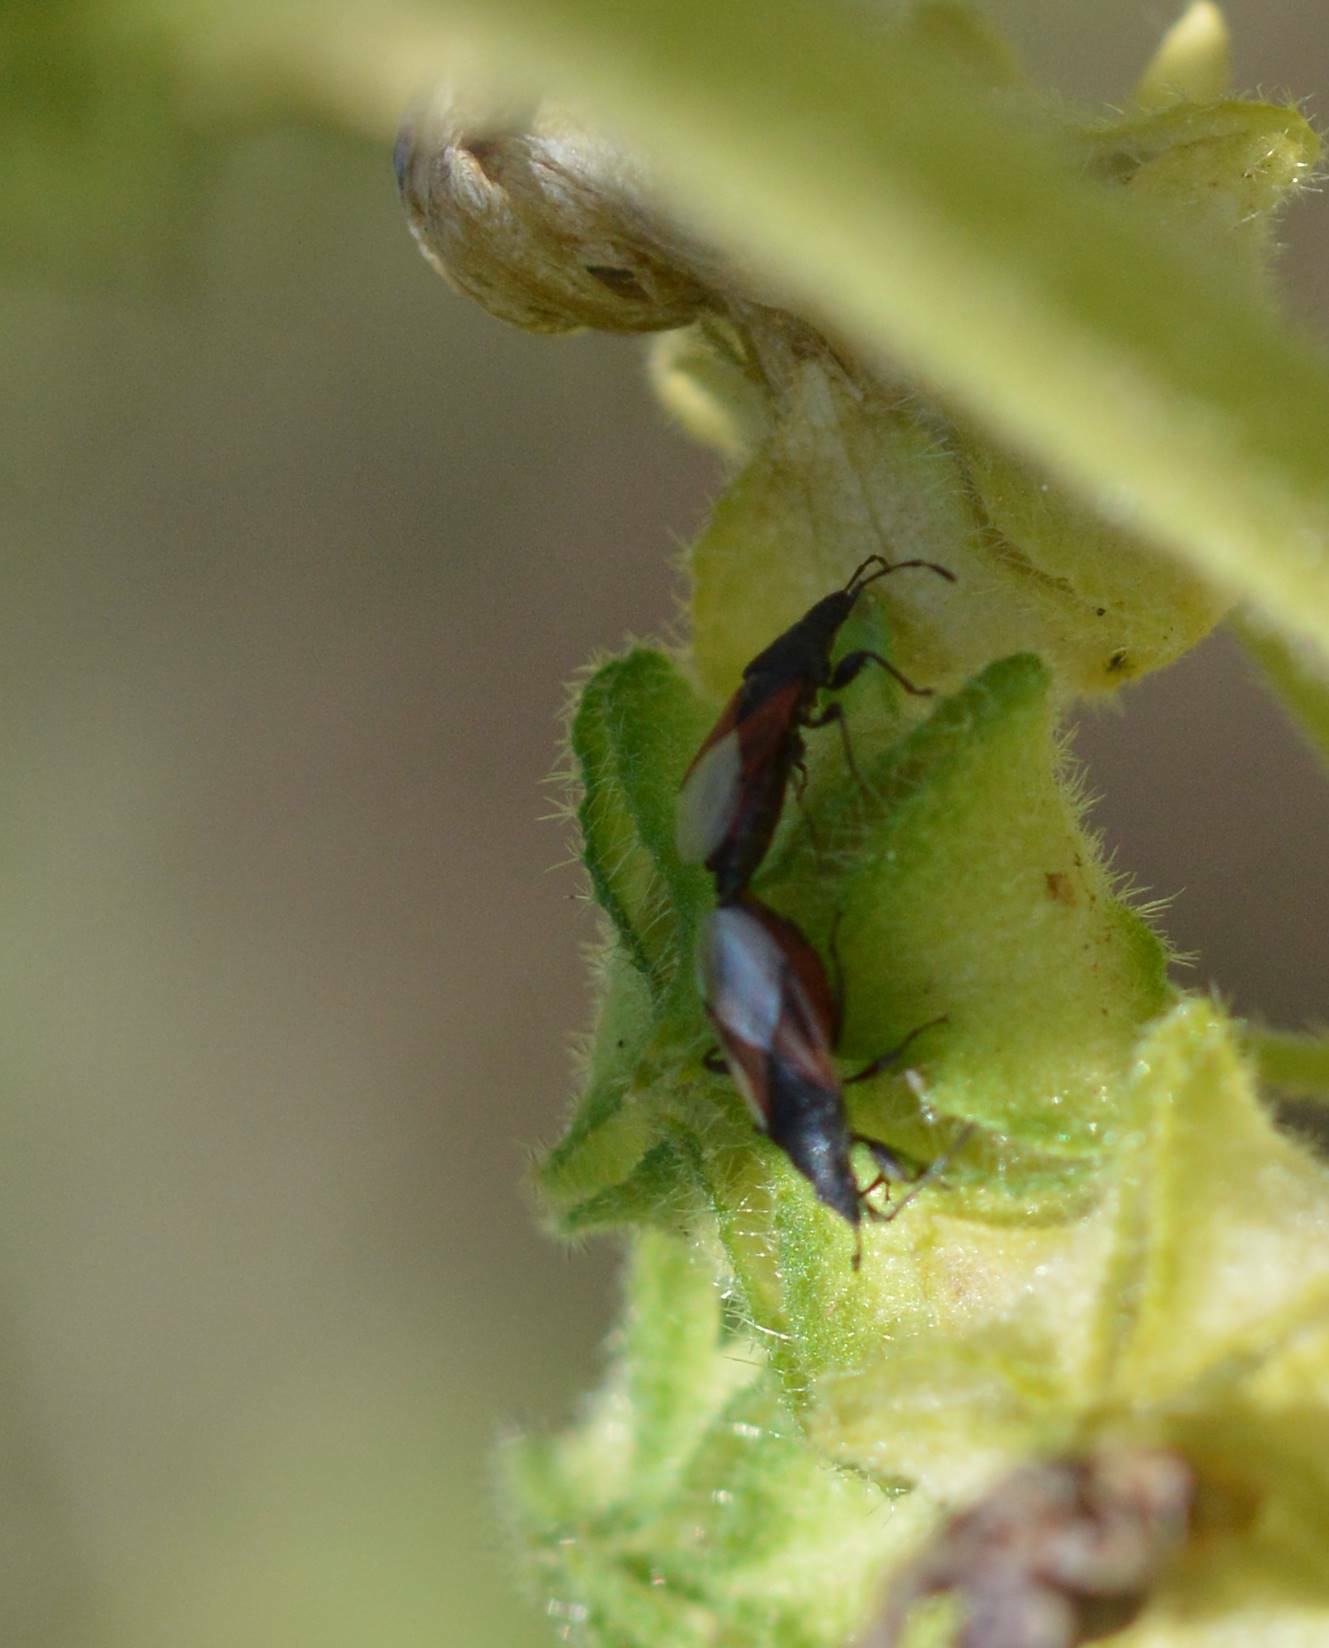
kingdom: Animalia
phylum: Arthropoda
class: Insecta
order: Hemiptera
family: Oxycarenidae
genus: Oxycarenus
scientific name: Oxycarenus lavaterae
